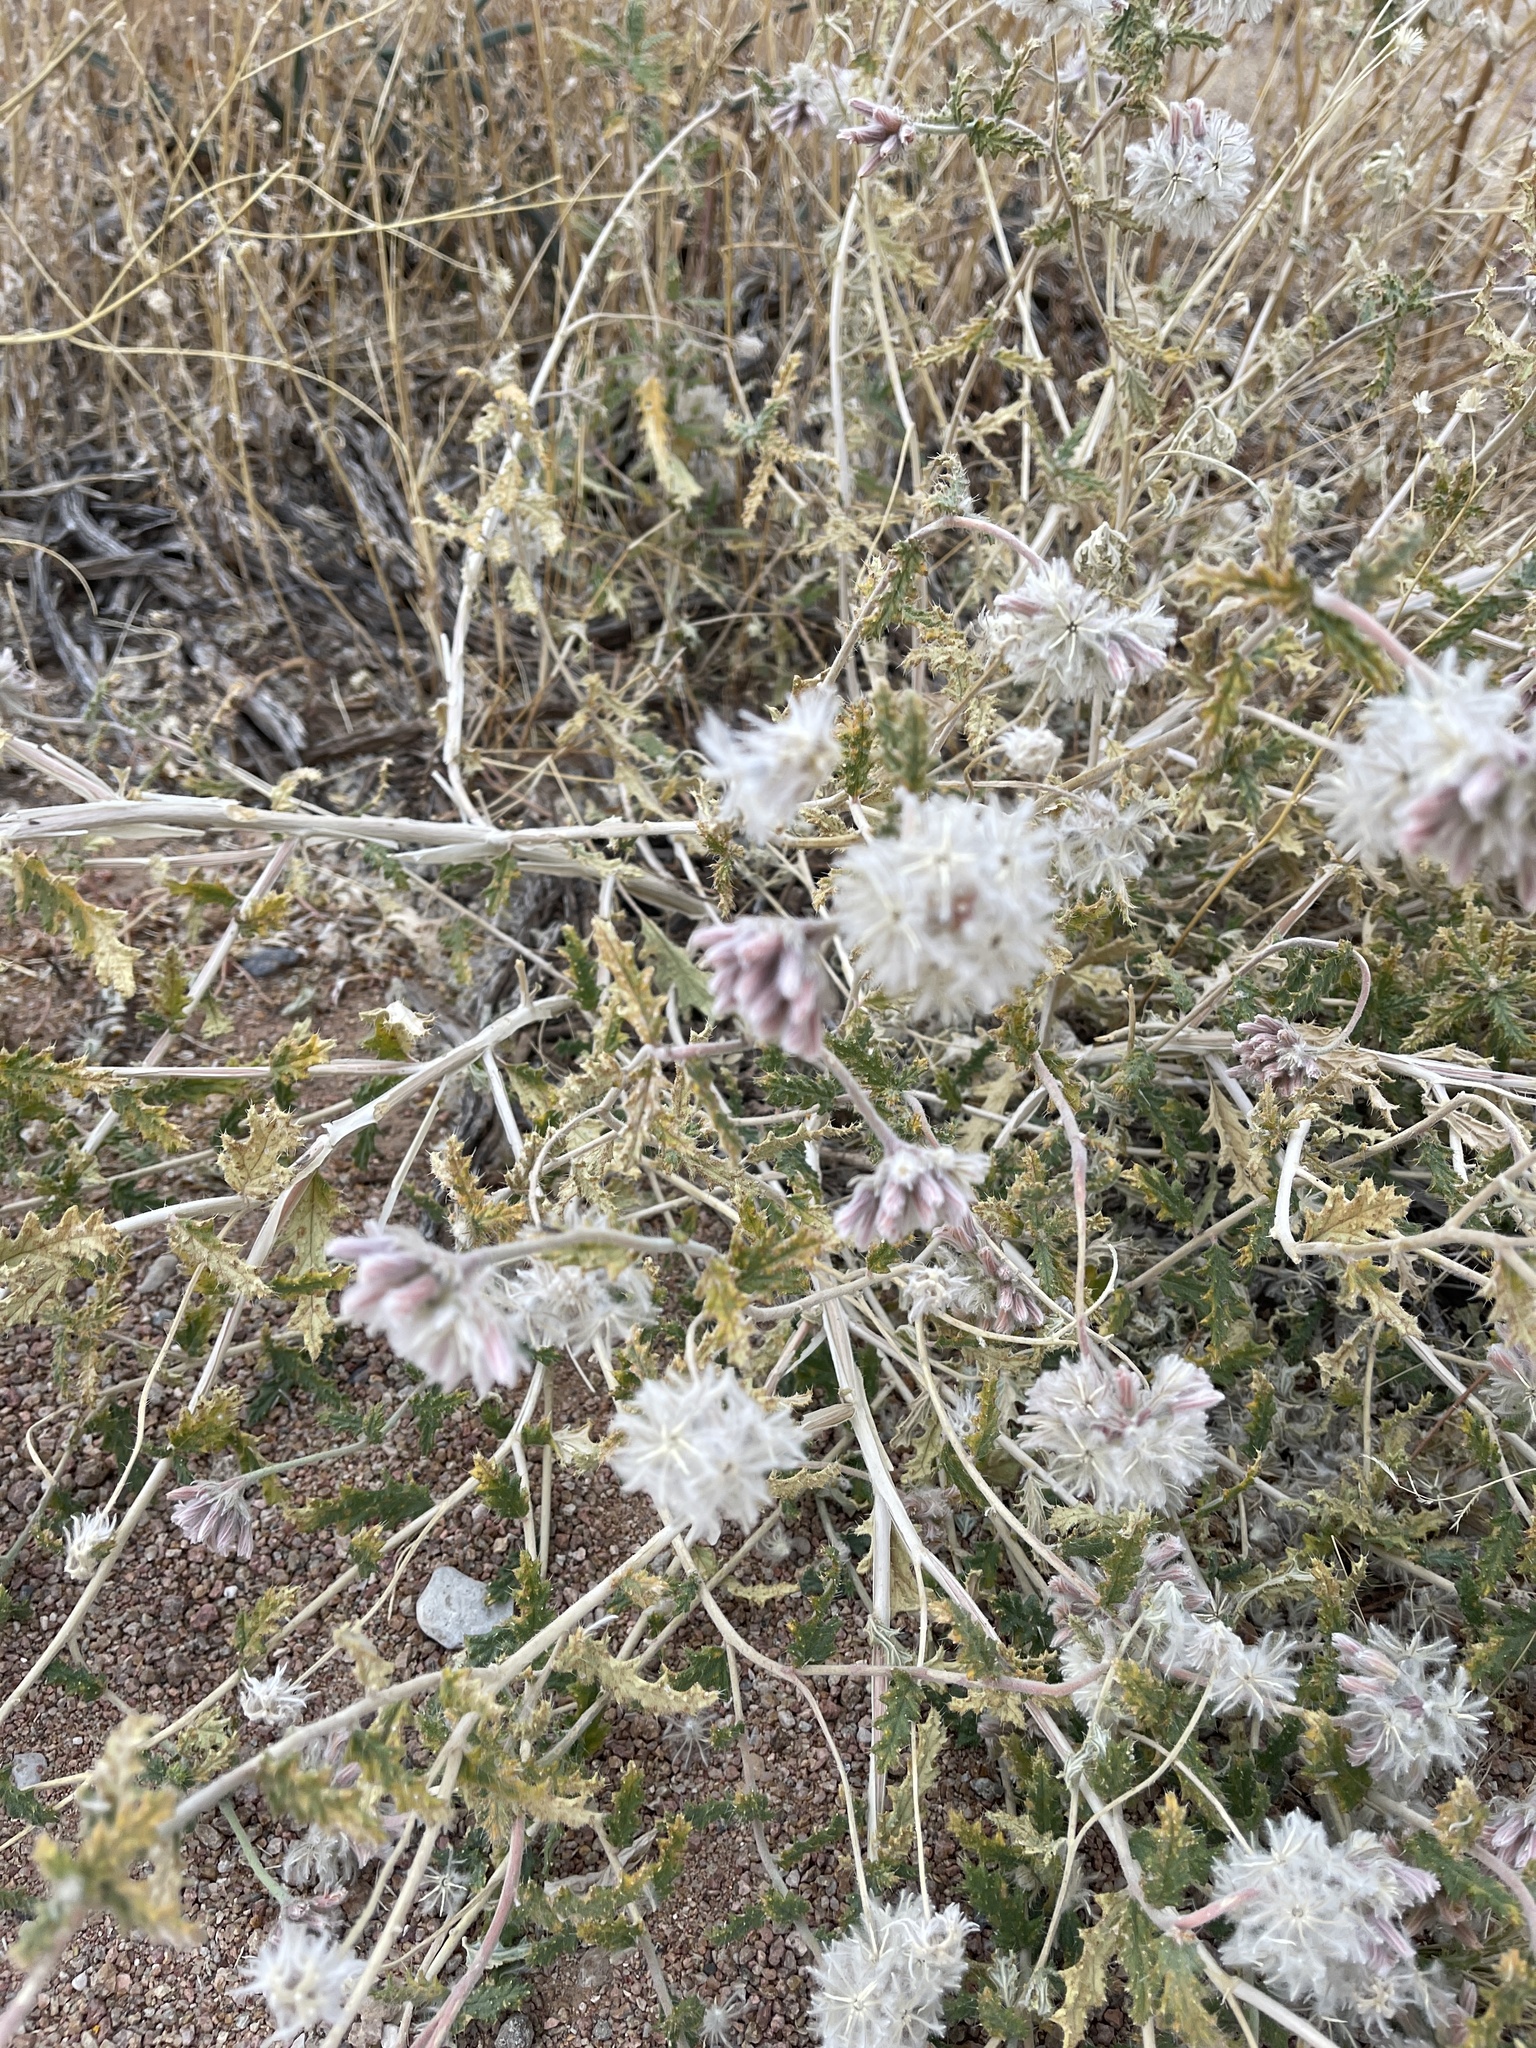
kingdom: Plantae
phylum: Tracheophyta
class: Magnoliopsida
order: Cornales
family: Loasaceae
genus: Cevallia
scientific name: Cevallia sinuata
